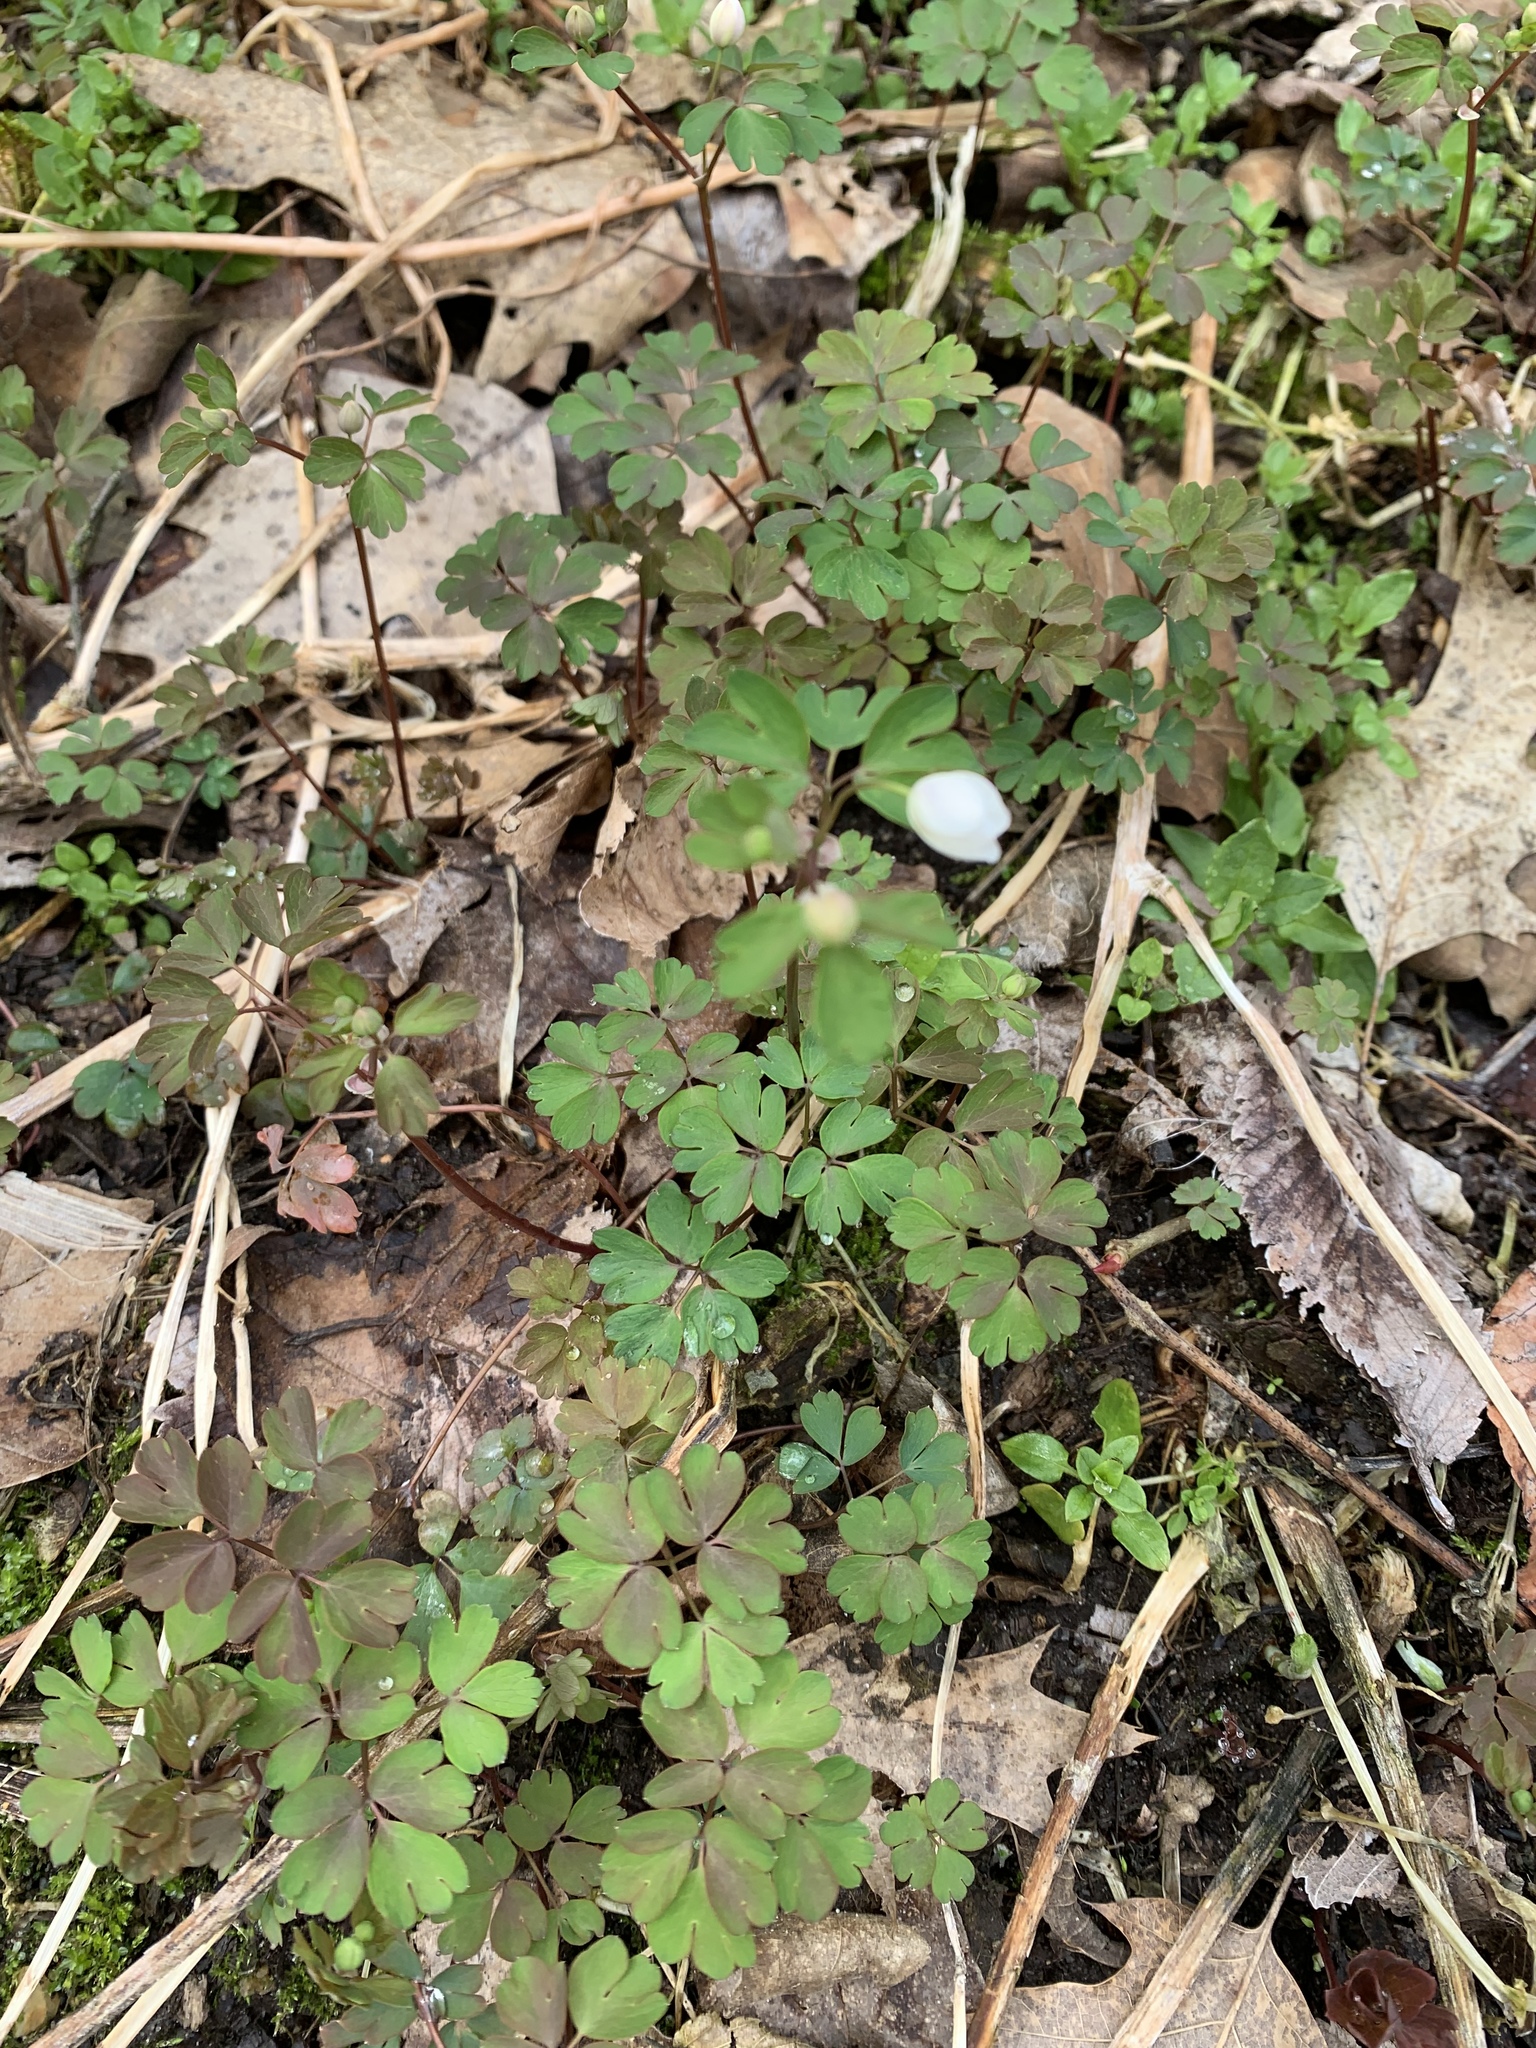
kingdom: Plantae
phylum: Tracheophyta
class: Magnoliopsida
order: Ranunculales
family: Ranunculaceae
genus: Enemion
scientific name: Enemion biternatum
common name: Eastern false rue-anemone
